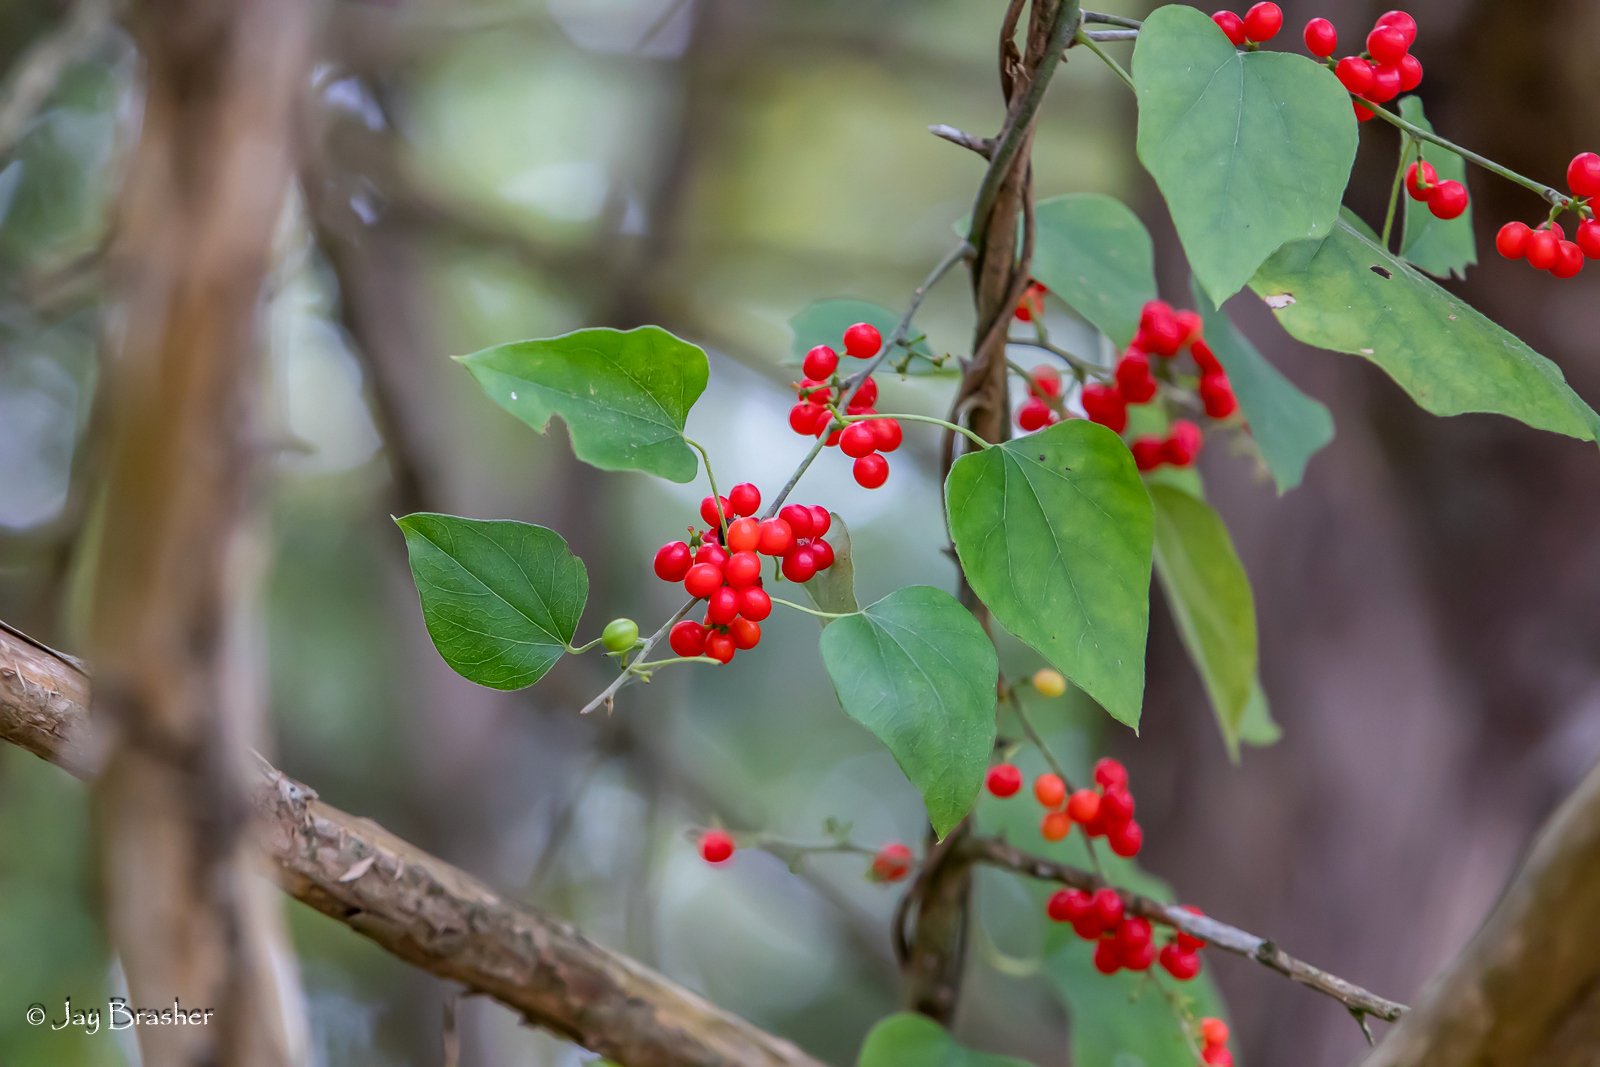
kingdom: Plantae
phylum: Tracheophyta
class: Magnoliopsida
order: Ranunculales
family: Menispermaceae
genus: Cocculus
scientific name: Cocculus carolinus
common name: Carolina moonseed
